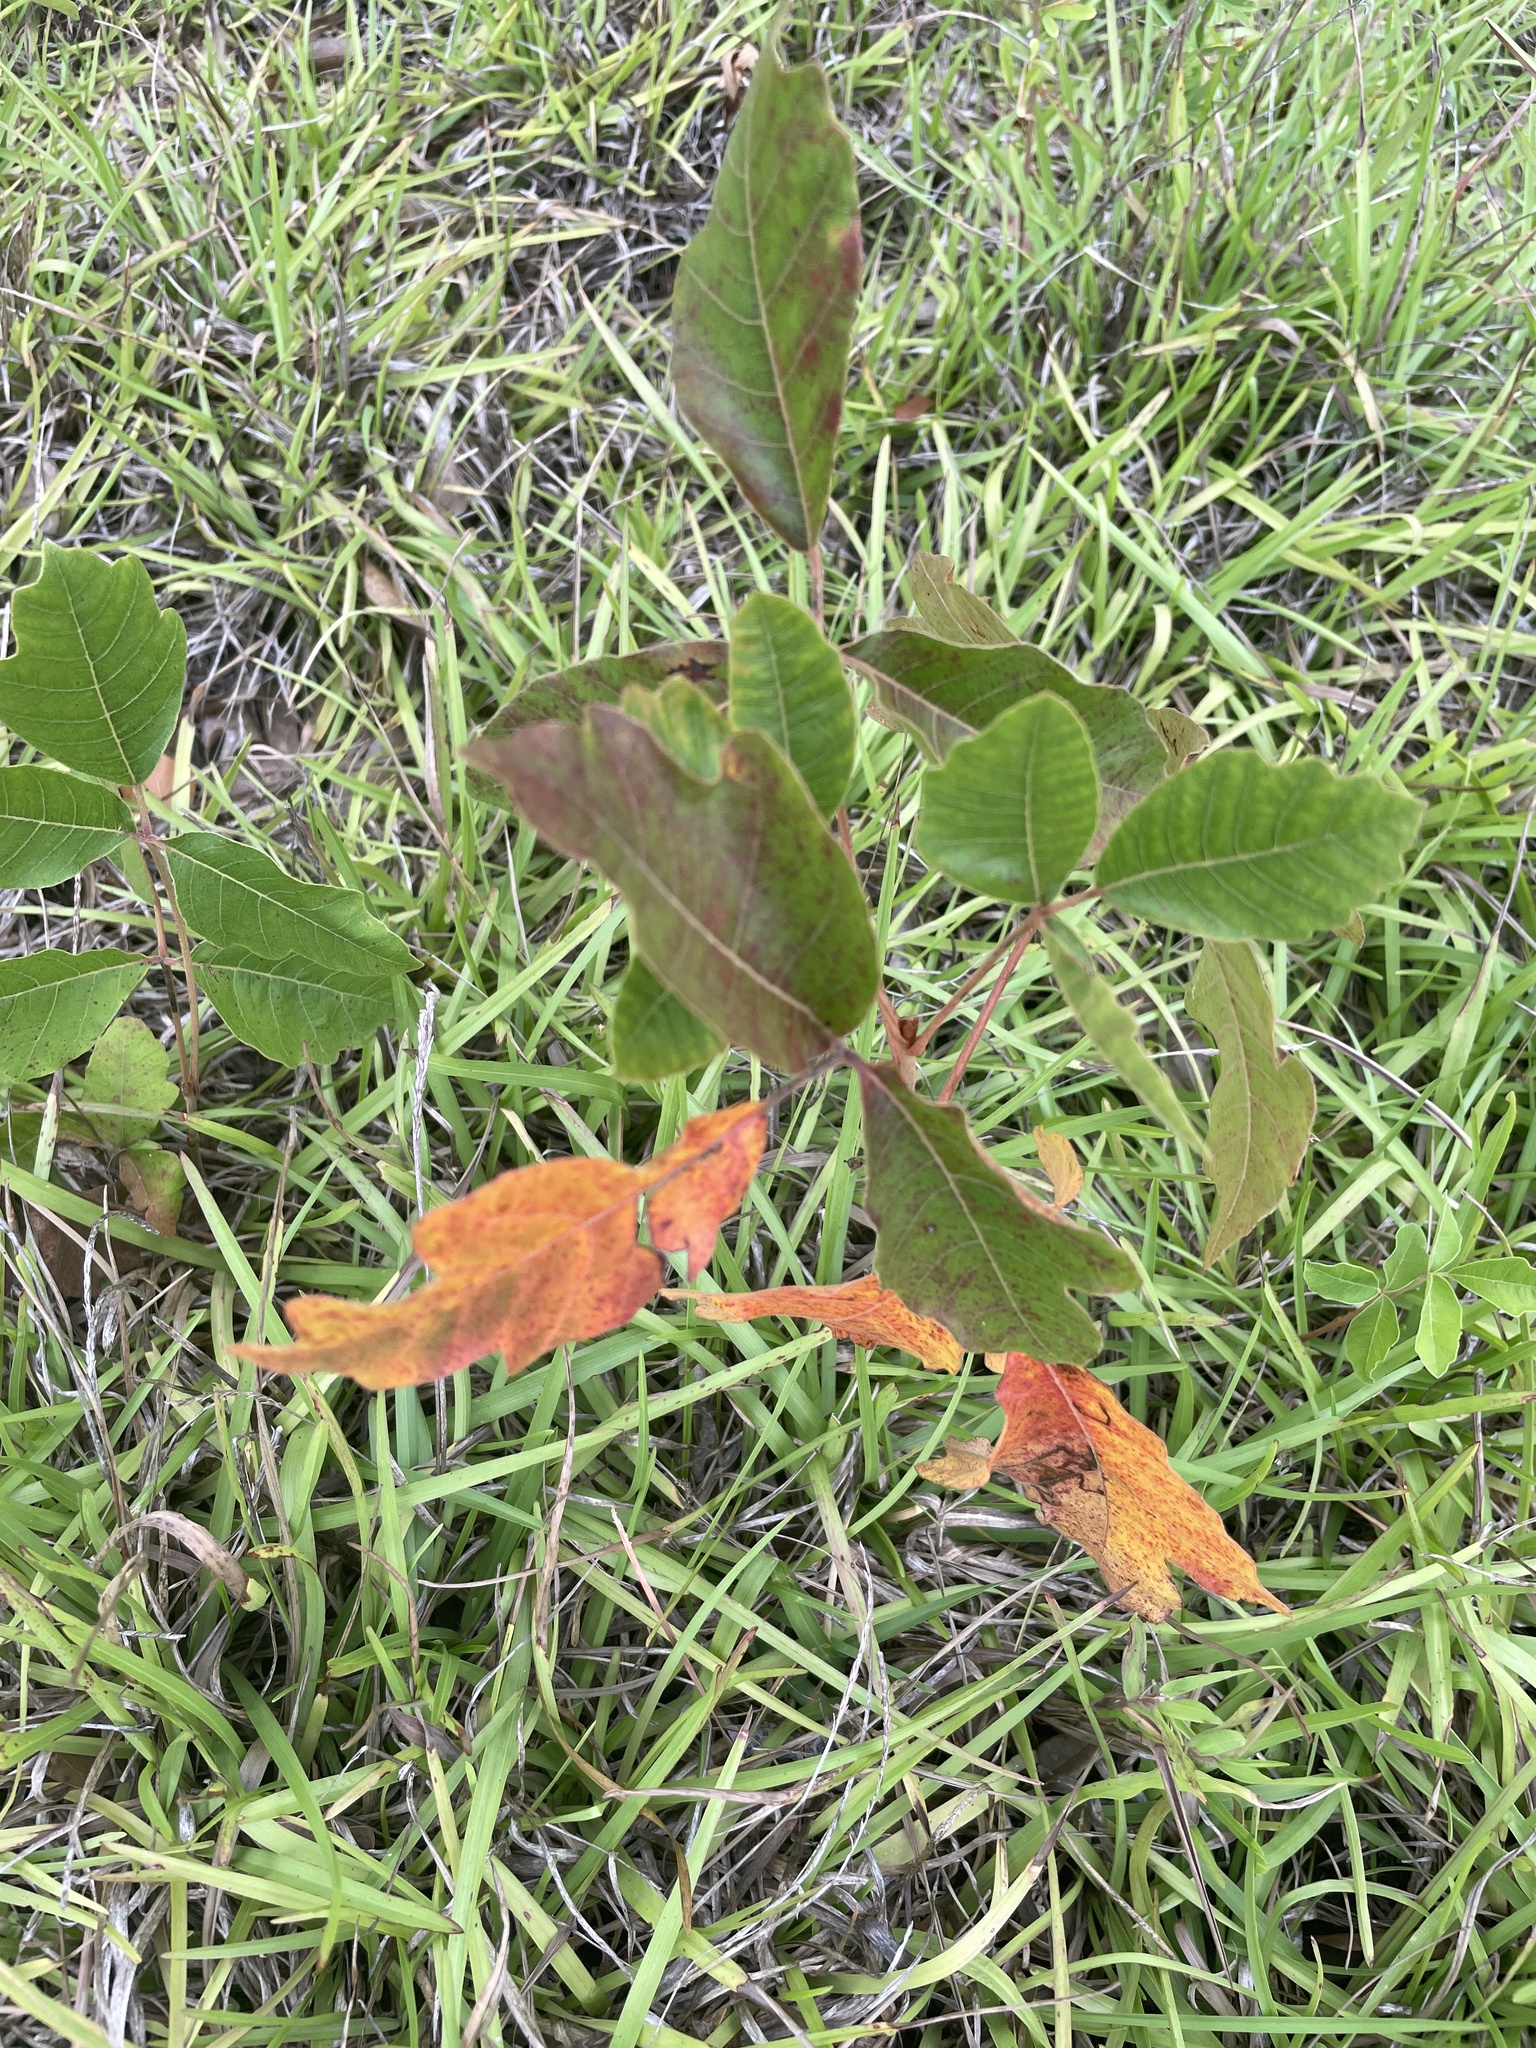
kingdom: Plantae
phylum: Tracheophyta
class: Magnoliopsida
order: Sapindales
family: Anacardiaceae
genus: Toxicodendron
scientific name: Toxicodendron pubescens
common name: Eastern poison-oak
